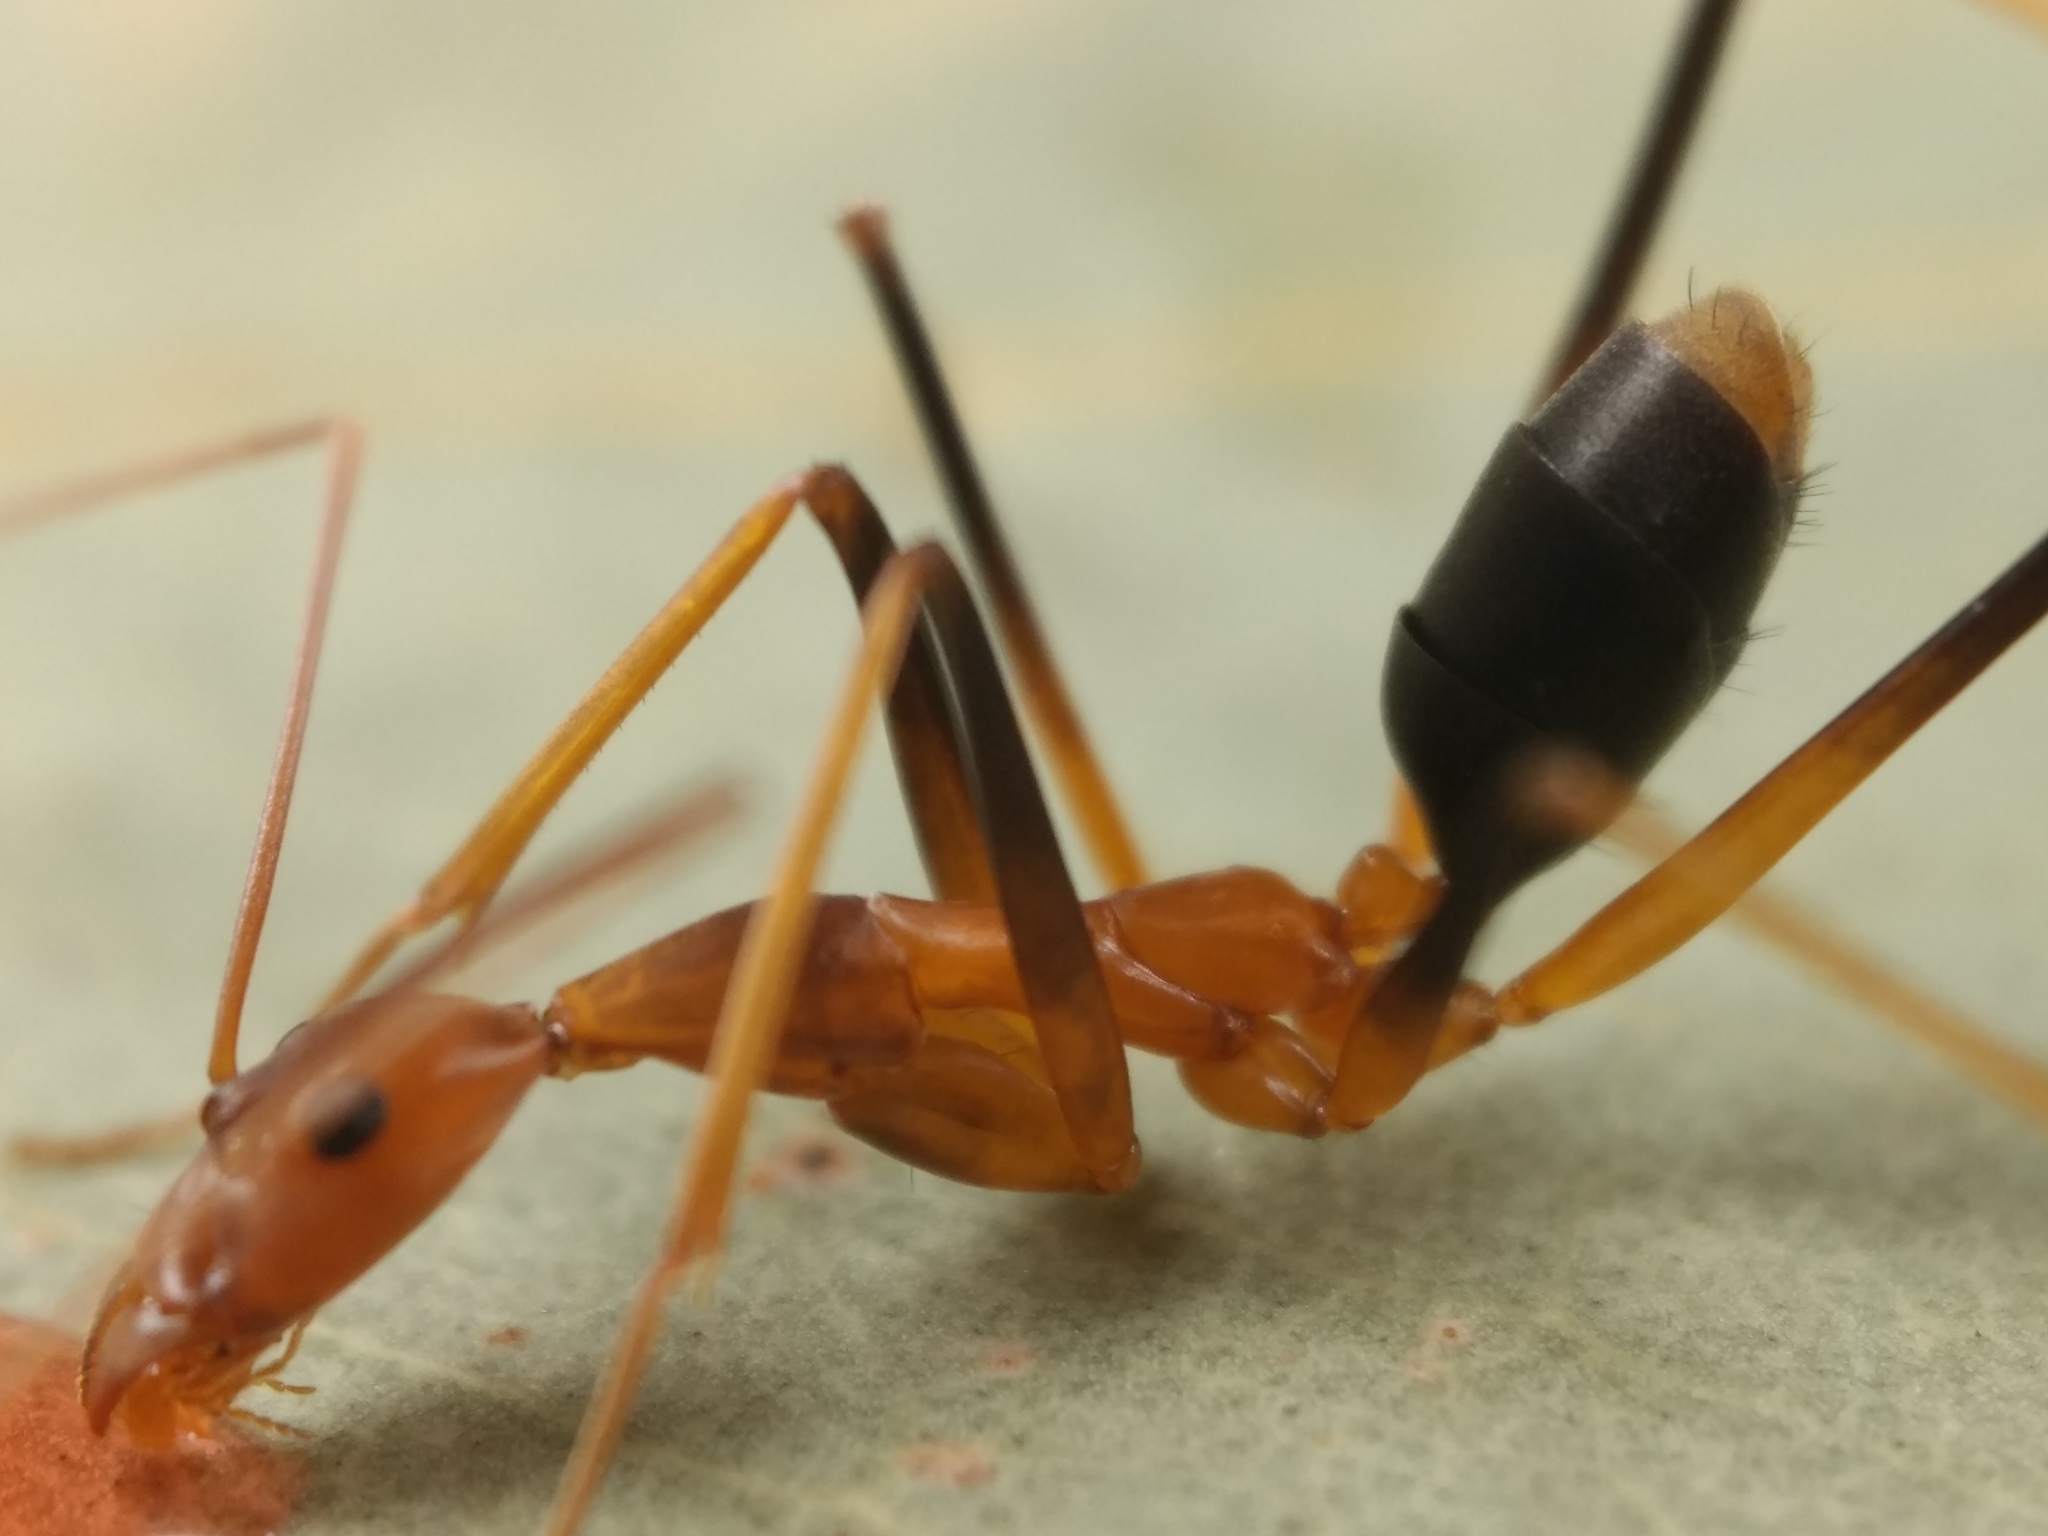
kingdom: Animalia
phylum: Arthropoda
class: Insecta
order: Hymenoptera
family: Formicidae
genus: Leptomyrmex
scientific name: Leptomyrmex rothneyi
